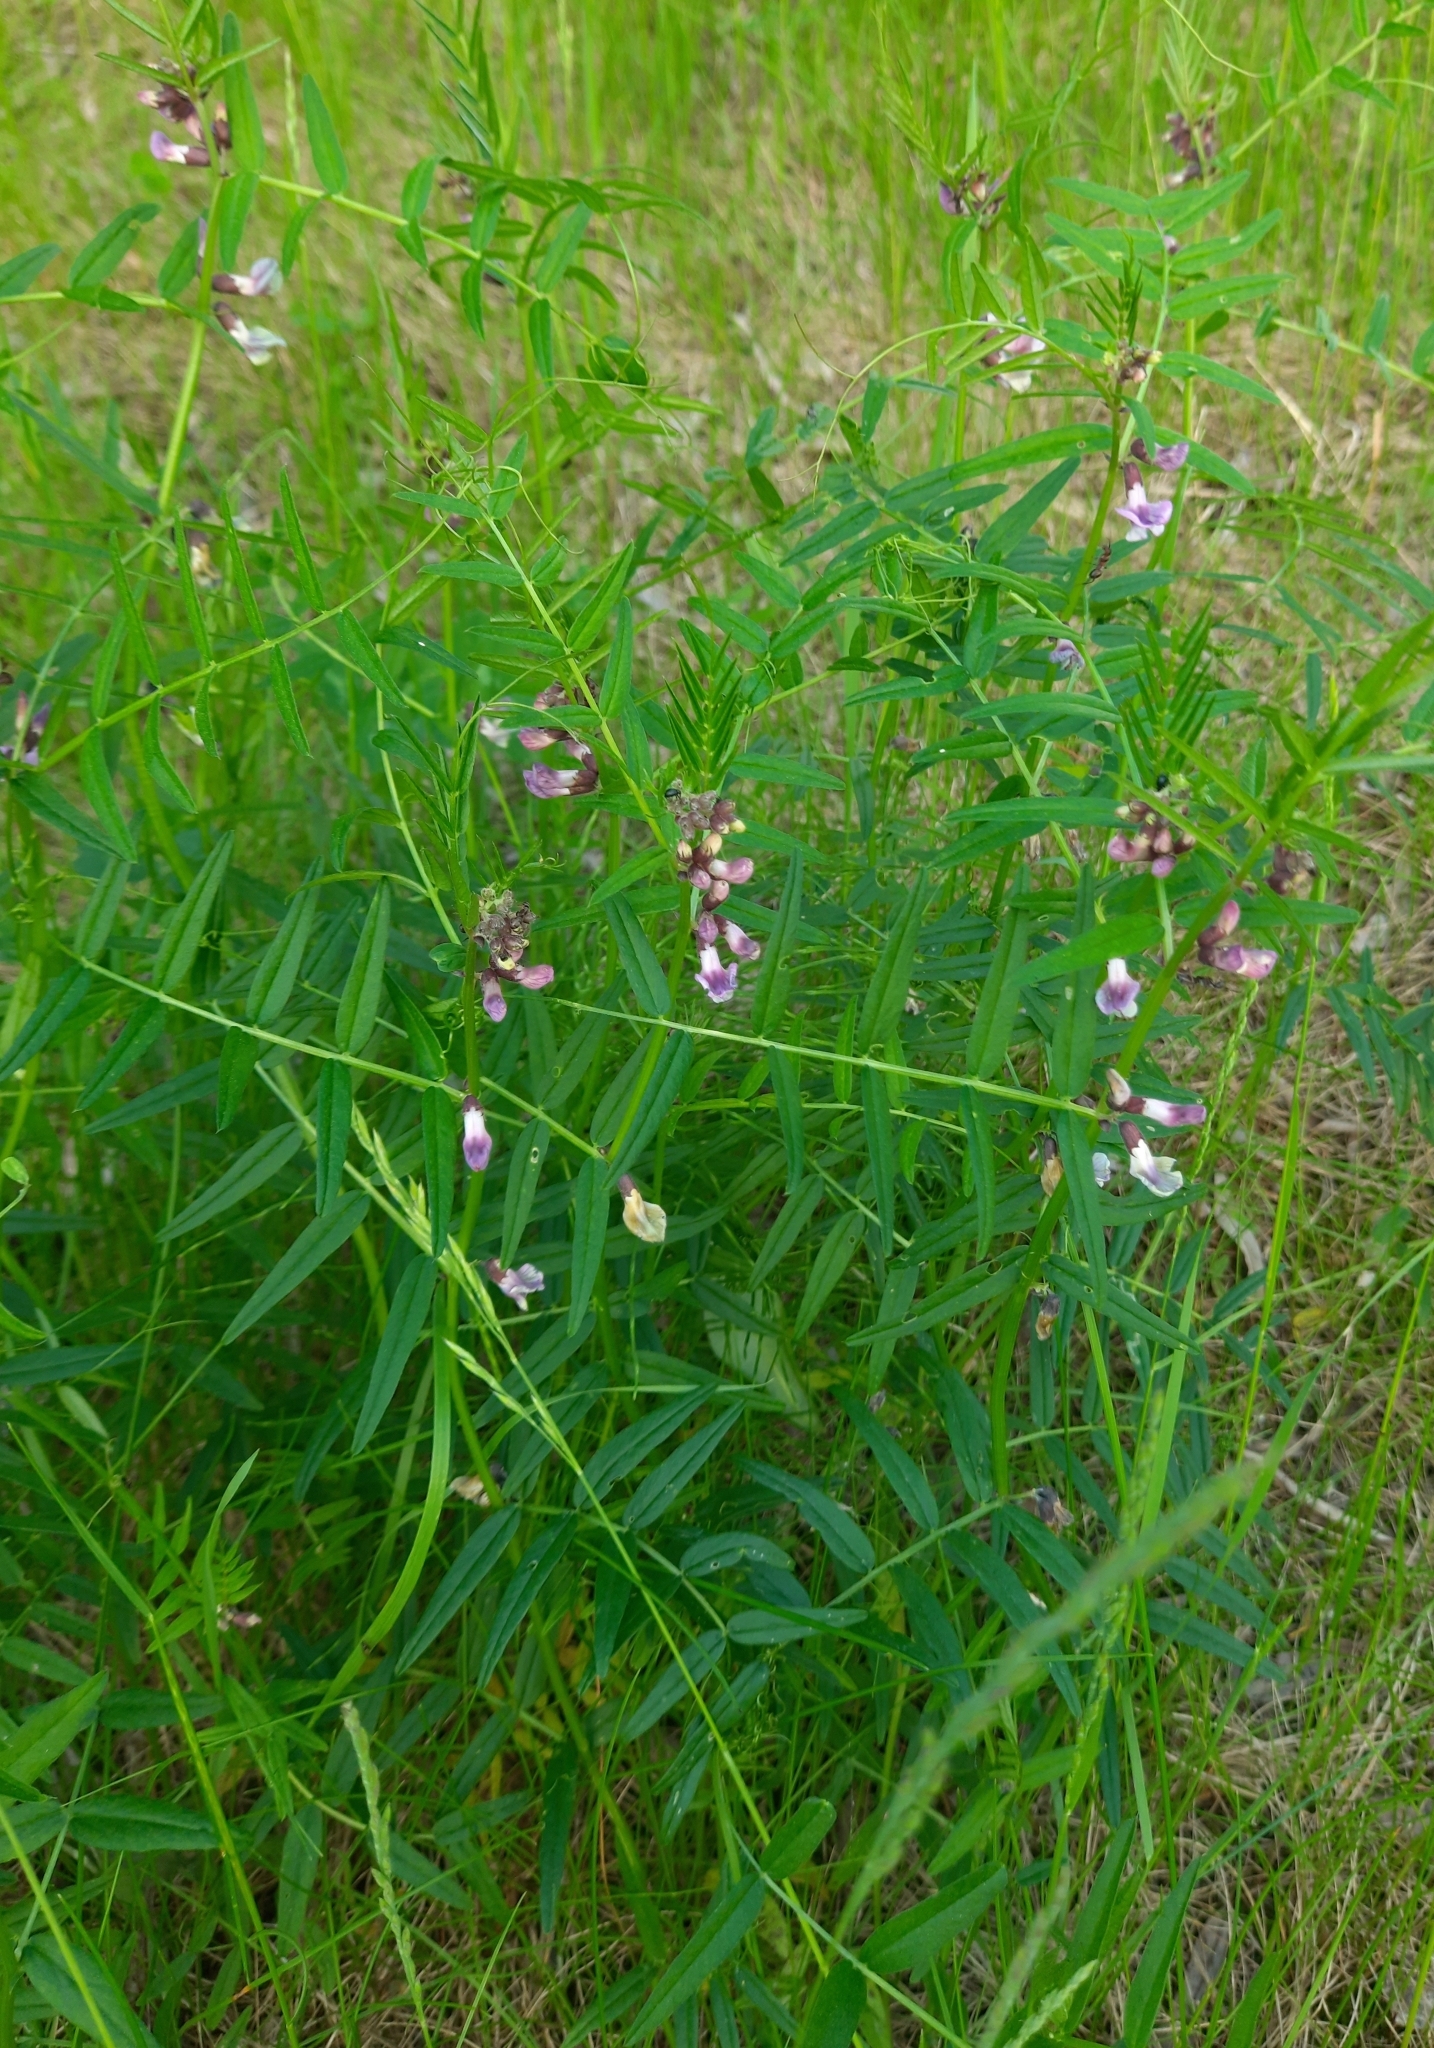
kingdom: Plantae
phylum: Tracheophyta
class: Magnoliopsida
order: Fabales
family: Fabaceae
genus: Vicia
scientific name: Vicia sepium
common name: Bush vetch
